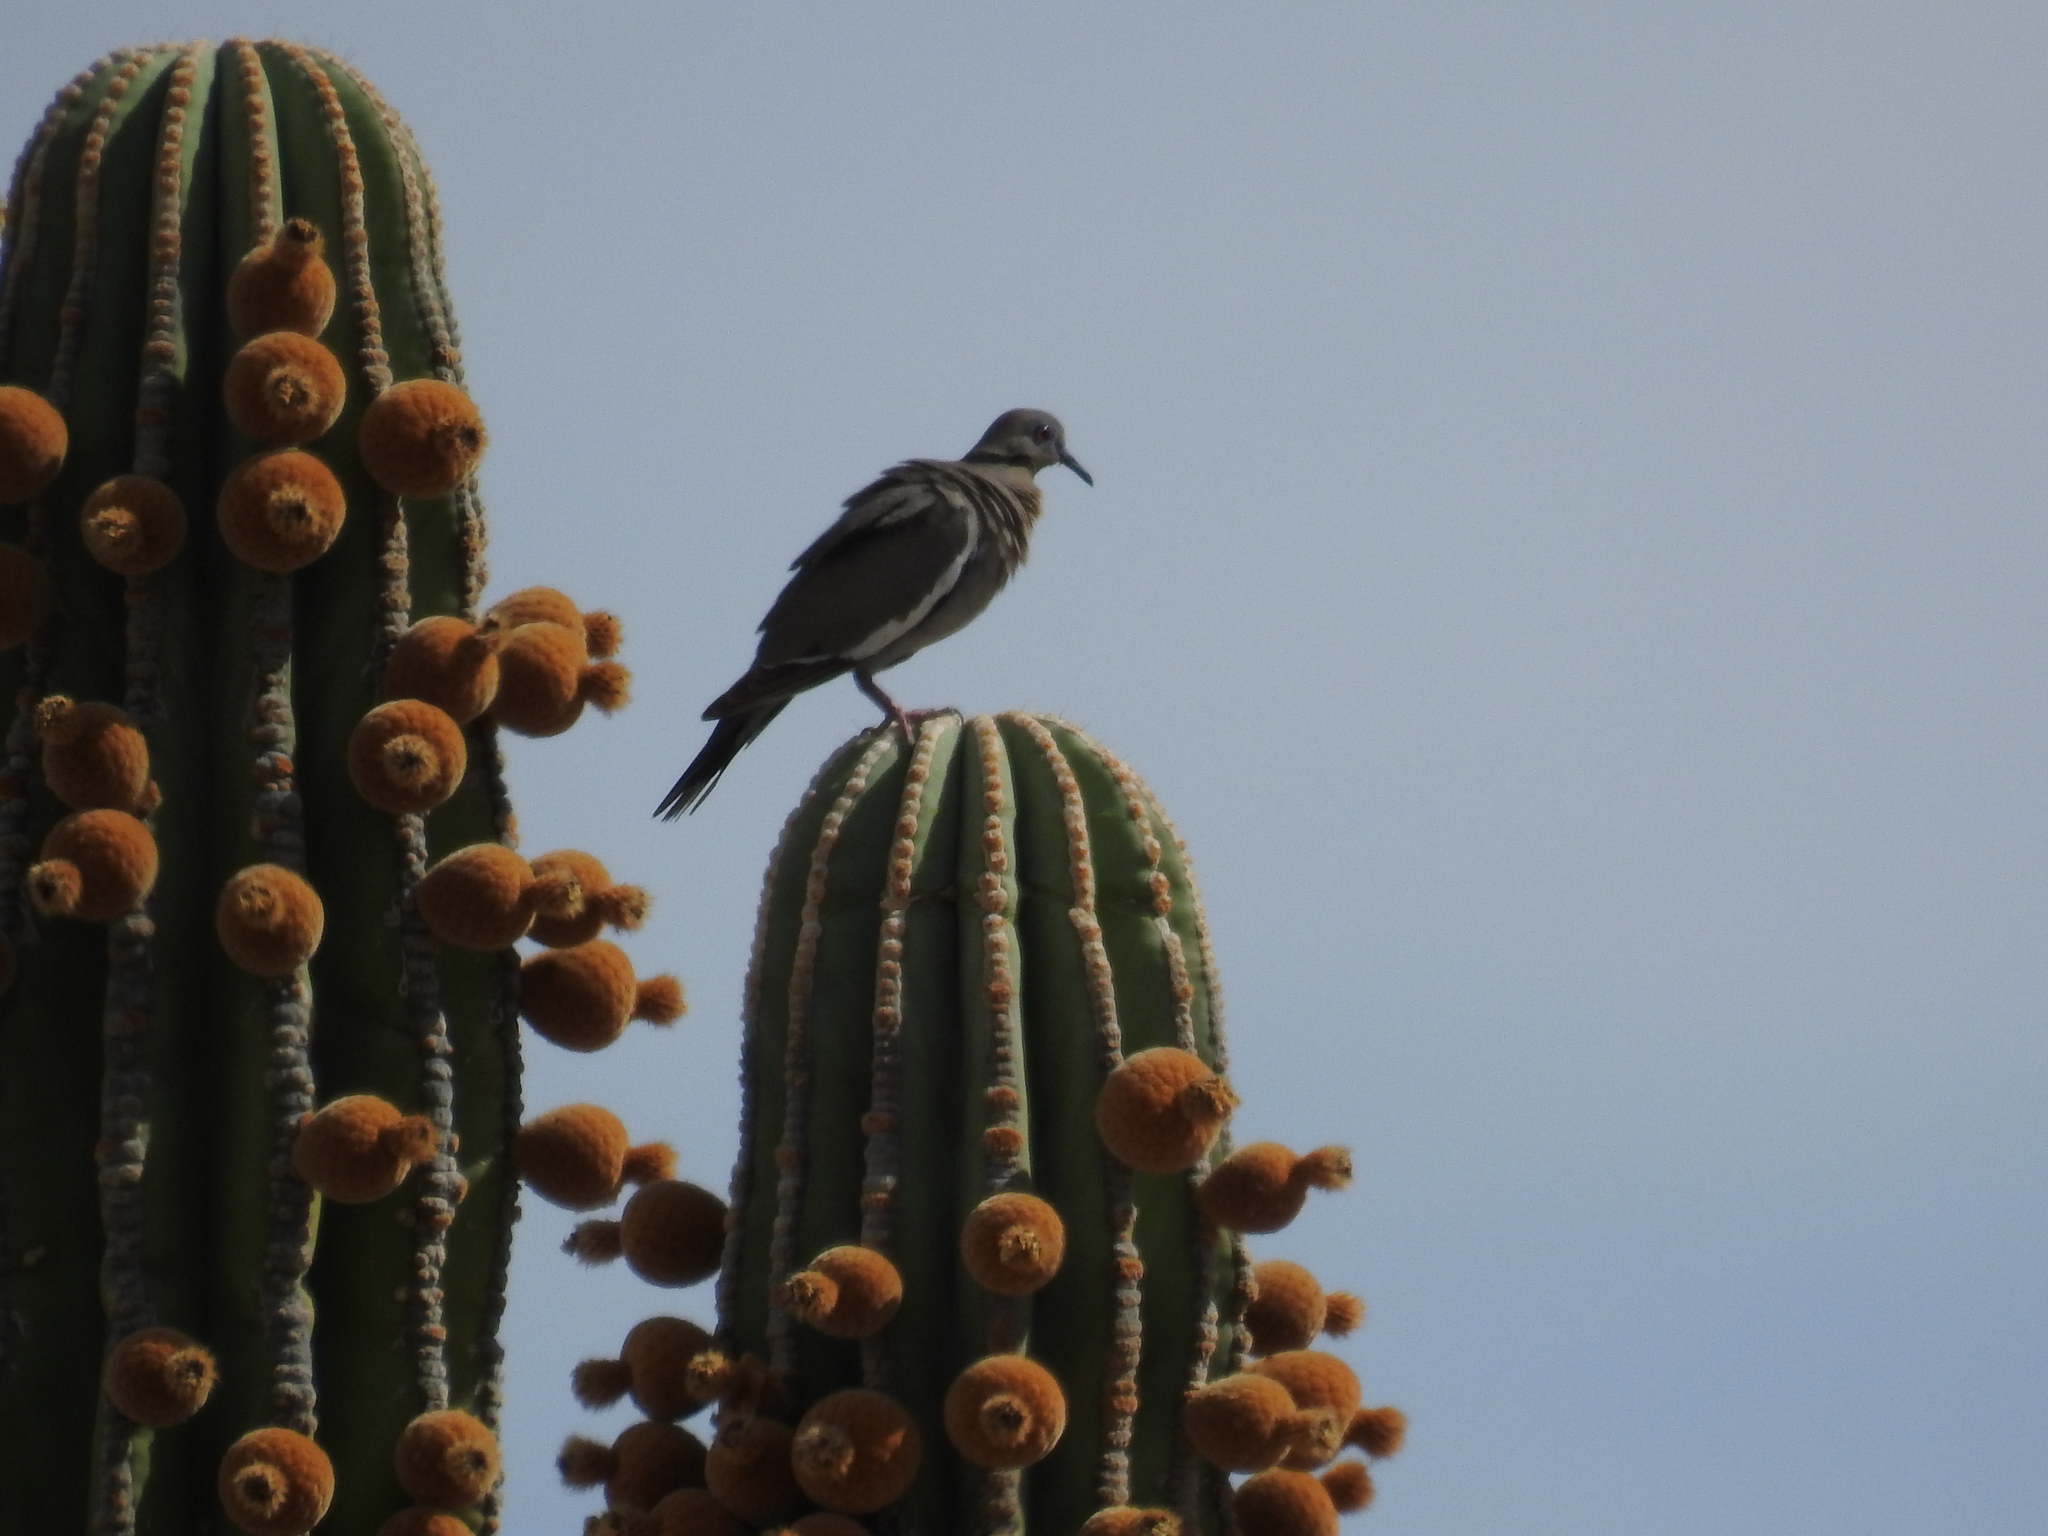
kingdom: Plantae
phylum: Tracheophyta
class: Magnoliopsida
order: Caryophyllales
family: Cactaceae
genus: Pachycereus
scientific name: Pachycereus pringlei
